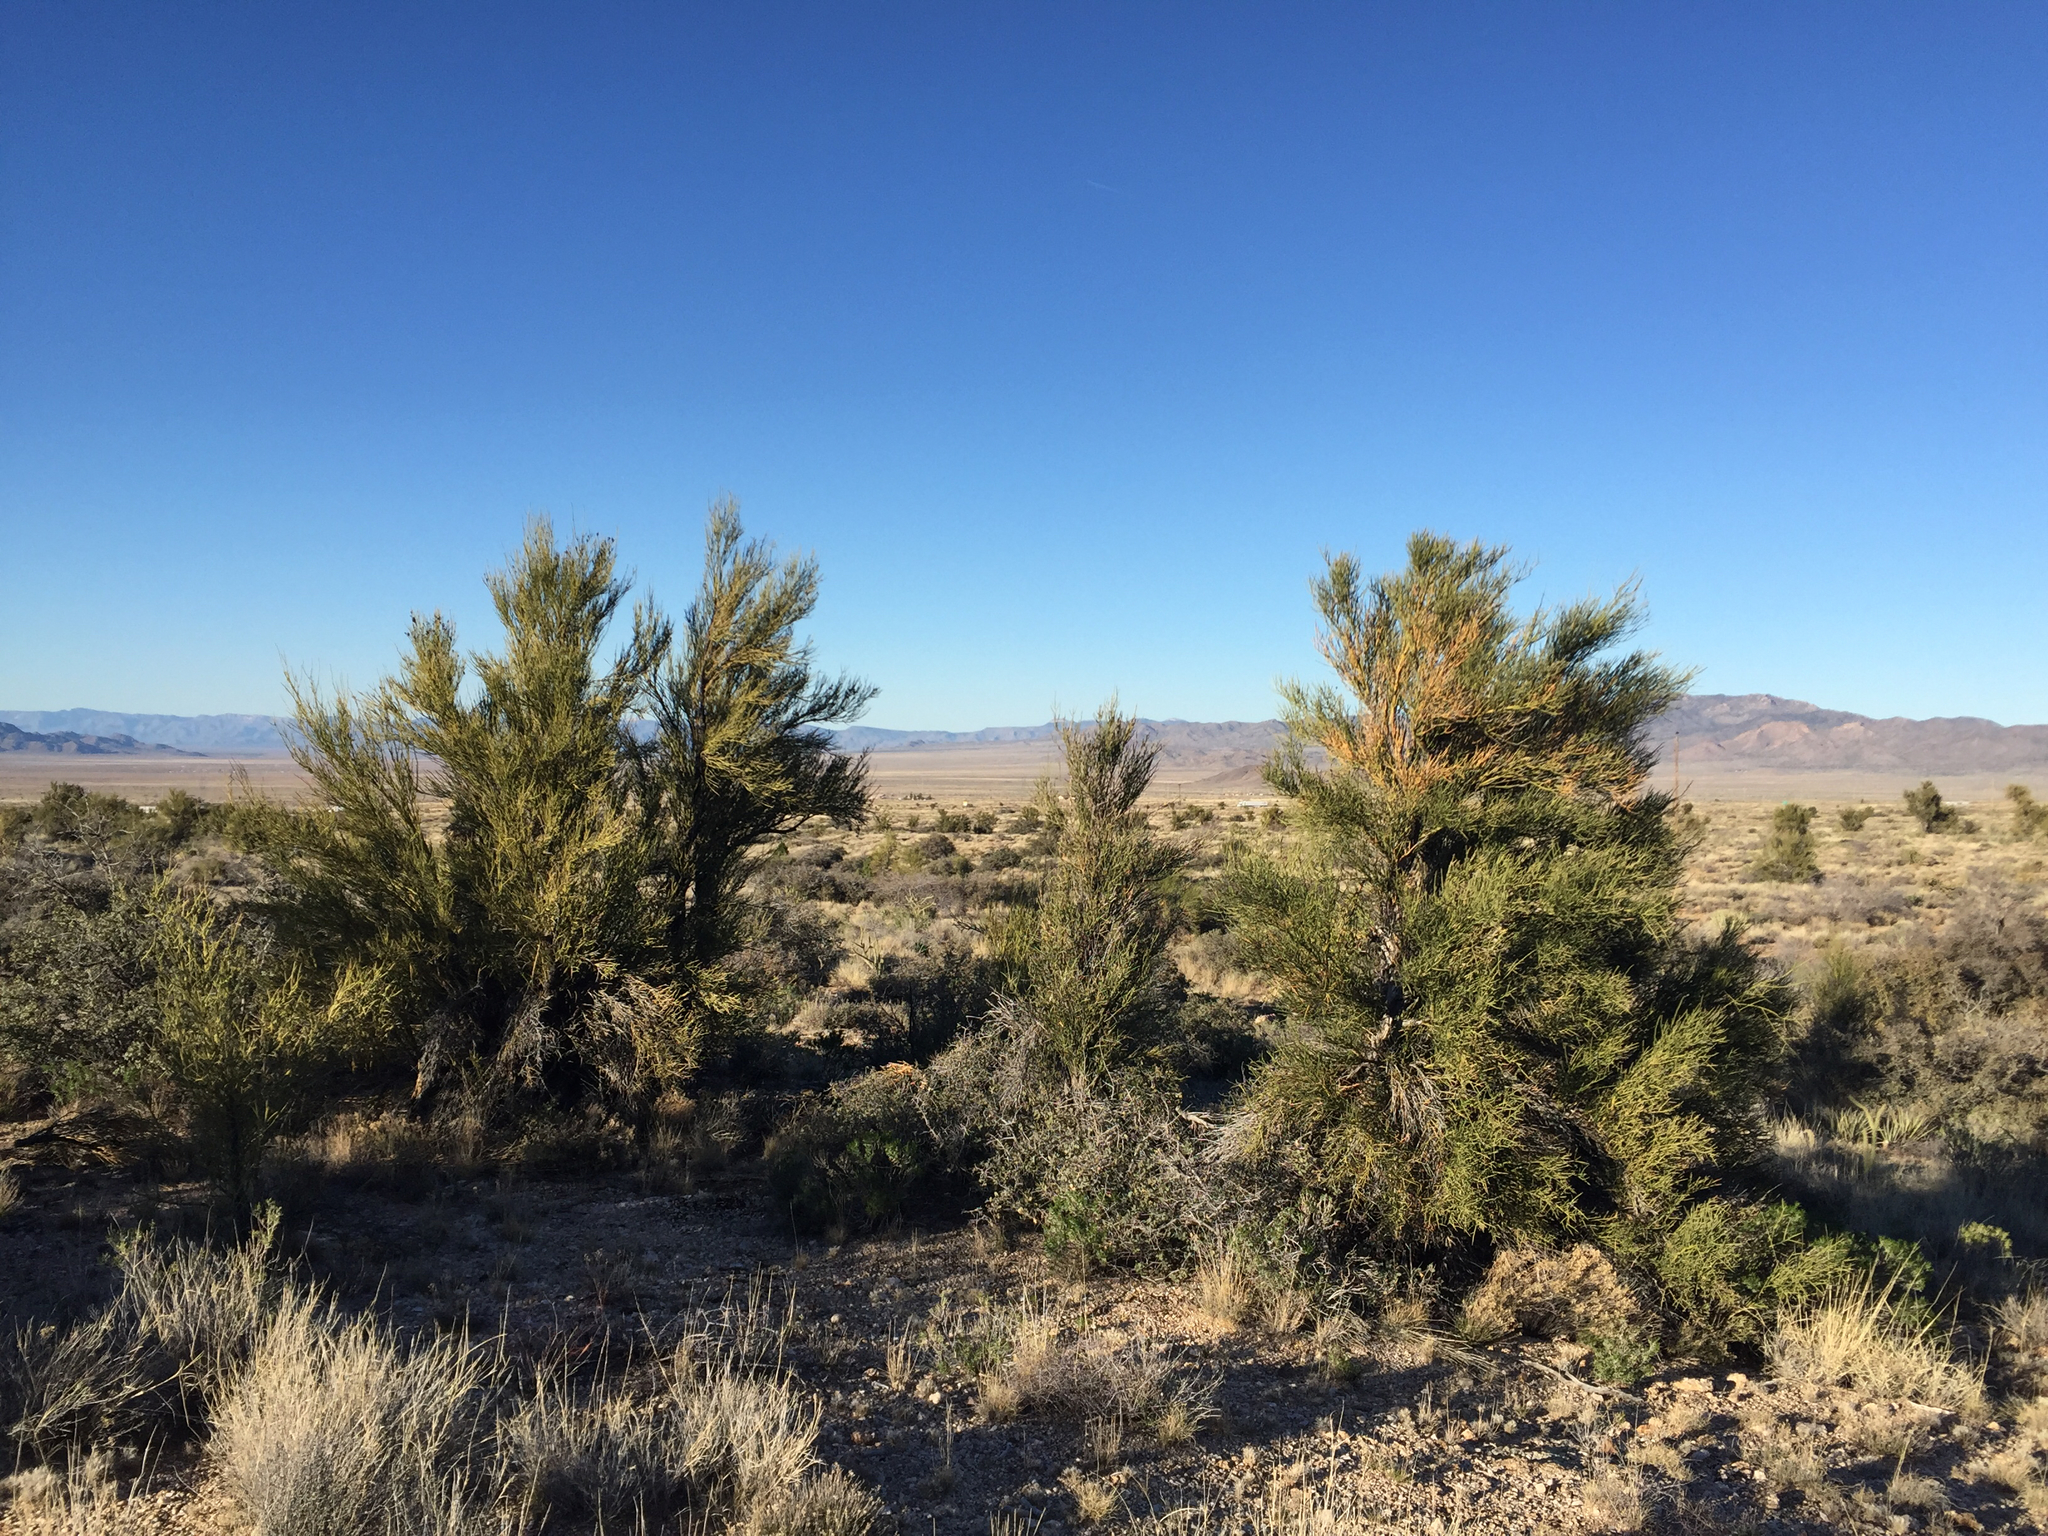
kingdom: Plantae
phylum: Tracheophyta
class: Magnoliopsida
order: Celastrales
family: Celastraceae
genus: Canotia
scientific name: Canotia holacantha
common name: Crucifixion thorns
